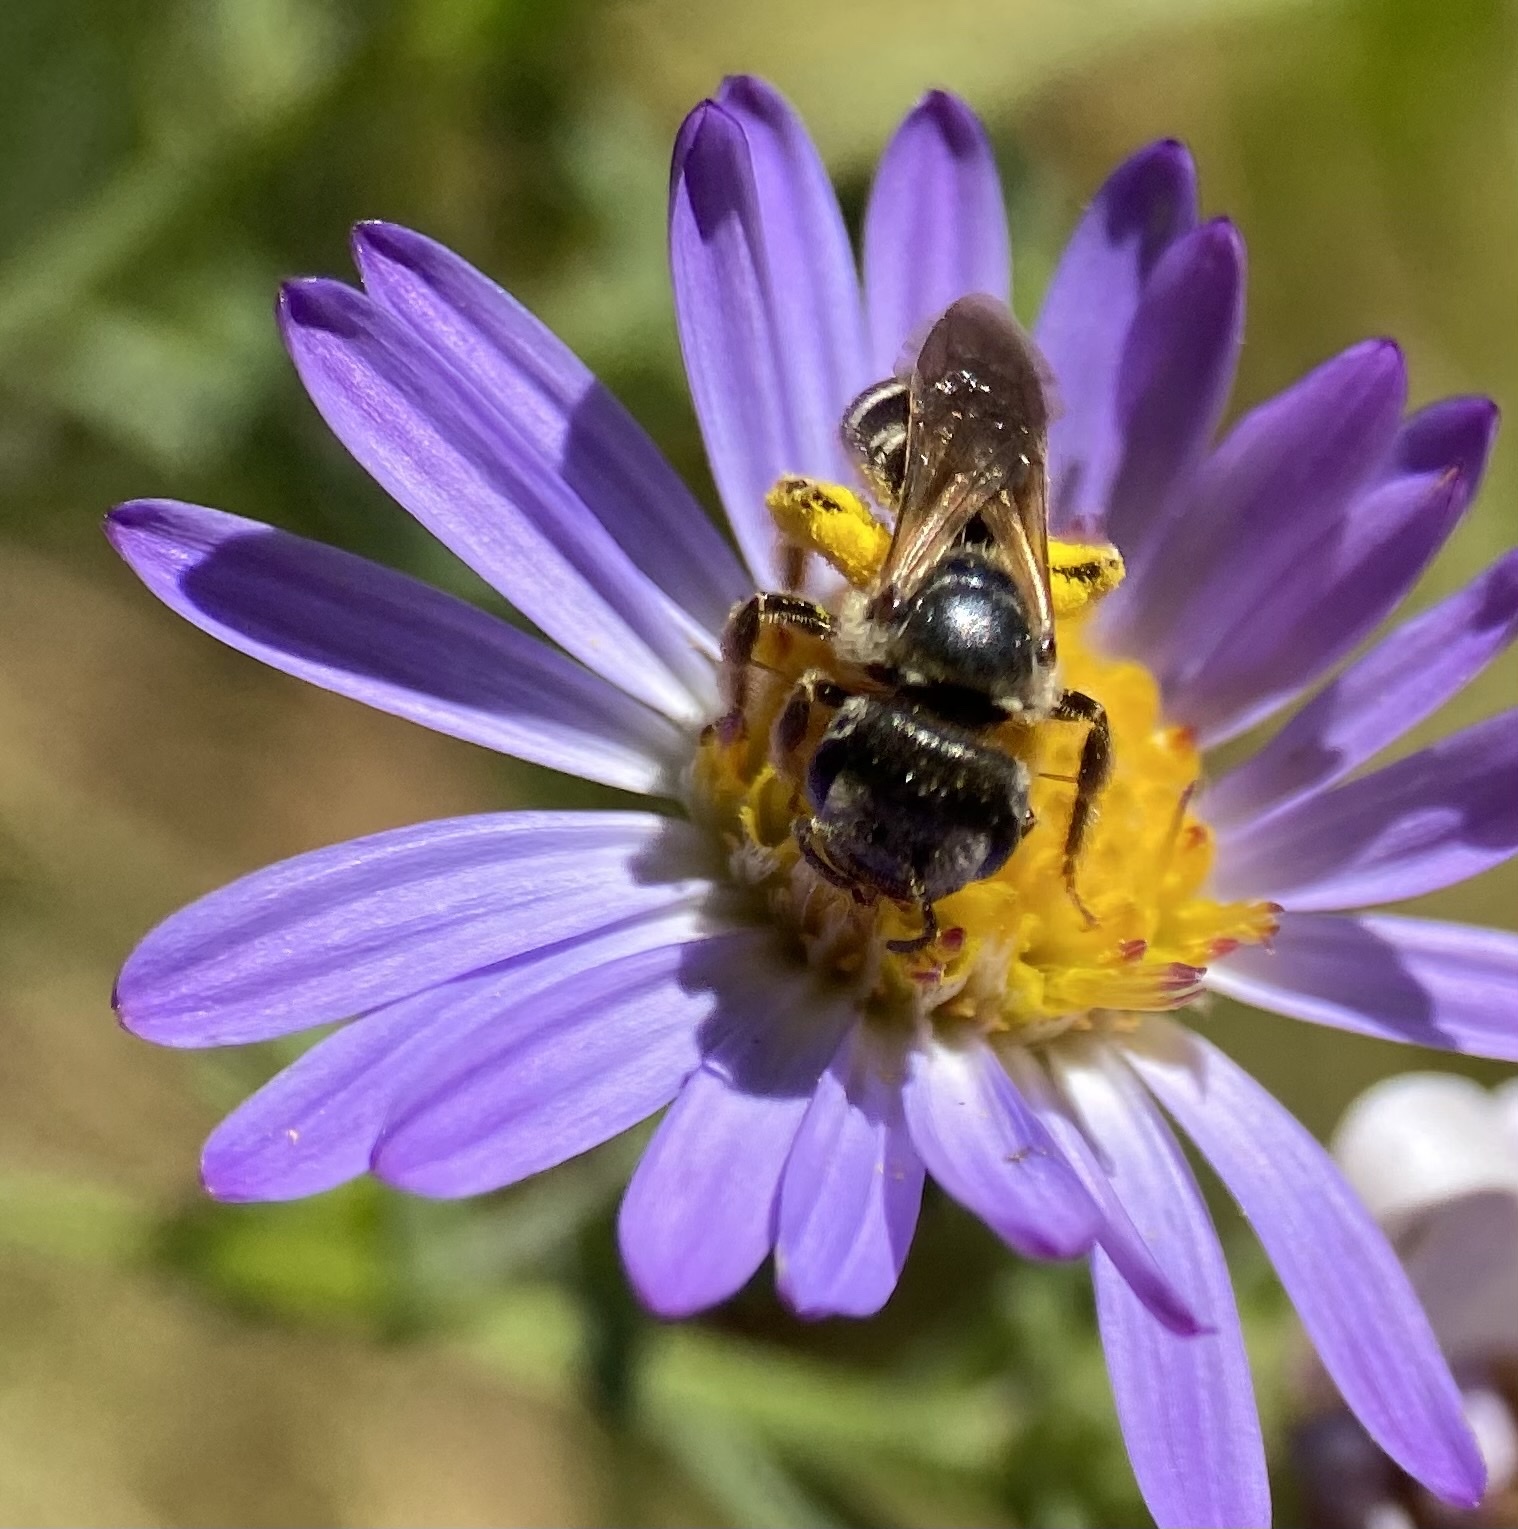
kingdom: Animalia
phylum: Arthropoda
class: Insecta
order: Hymenoptera
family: Halictidae
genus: Halictus
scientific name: Halictus ligatus
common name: Ligated furrow bee
